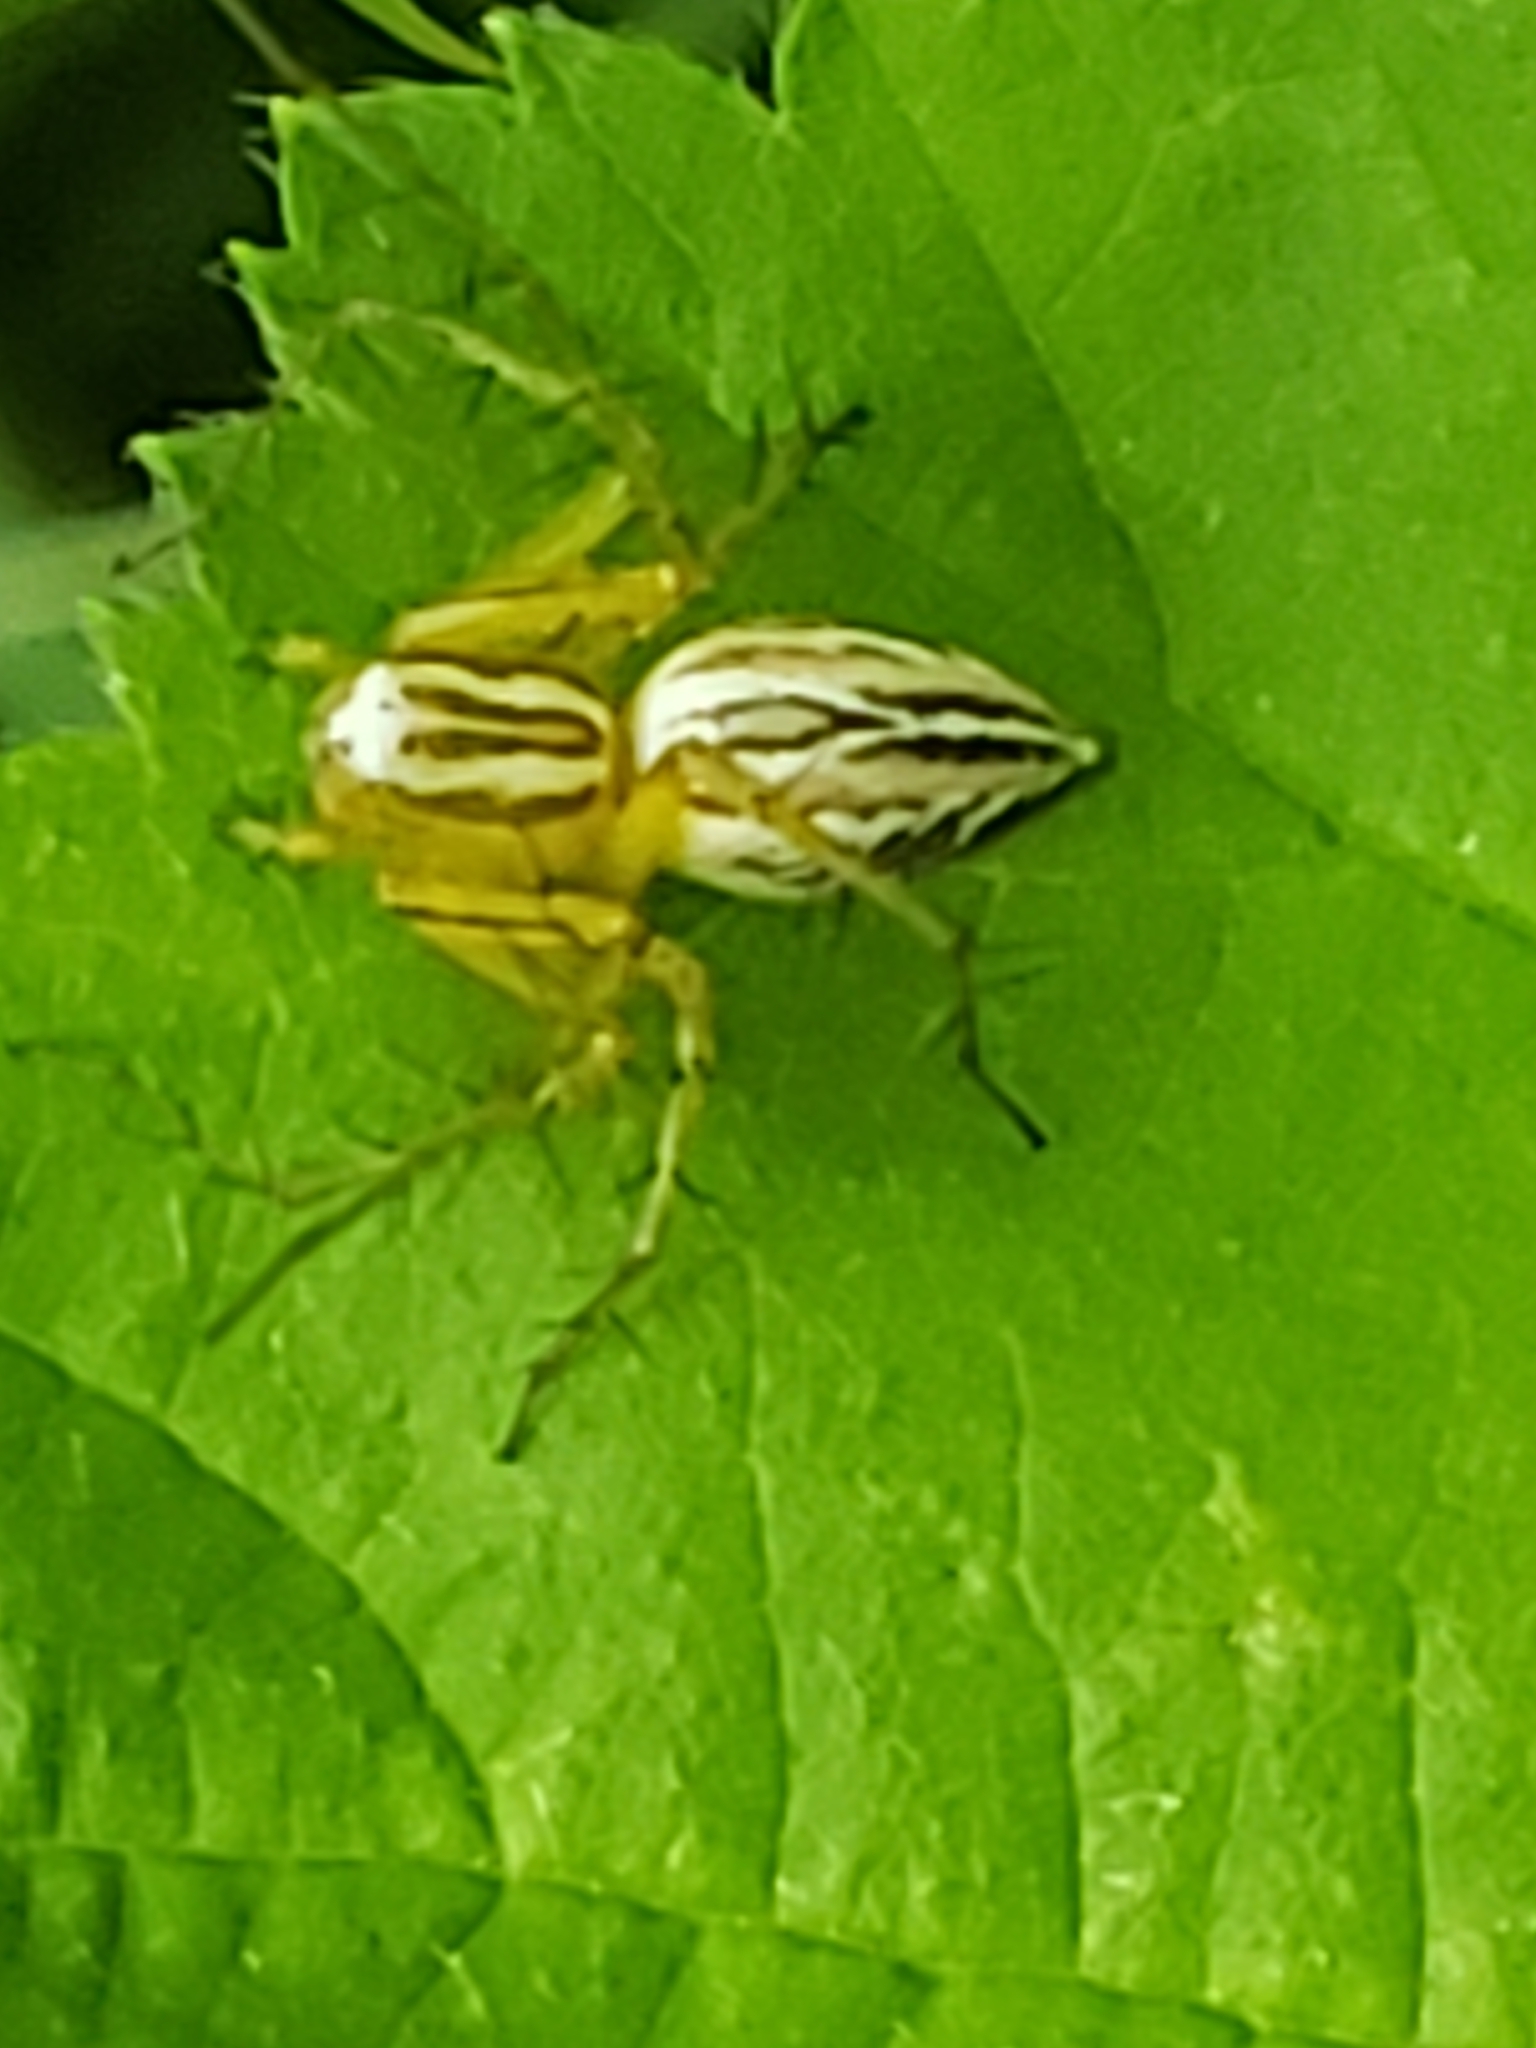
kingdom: Animalia
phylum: Arthropoda
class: Arachnida
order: Araneae
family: Oxyopidae
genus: Oxyopes
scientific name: Oxyopes salticus
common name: Lynx spiders
